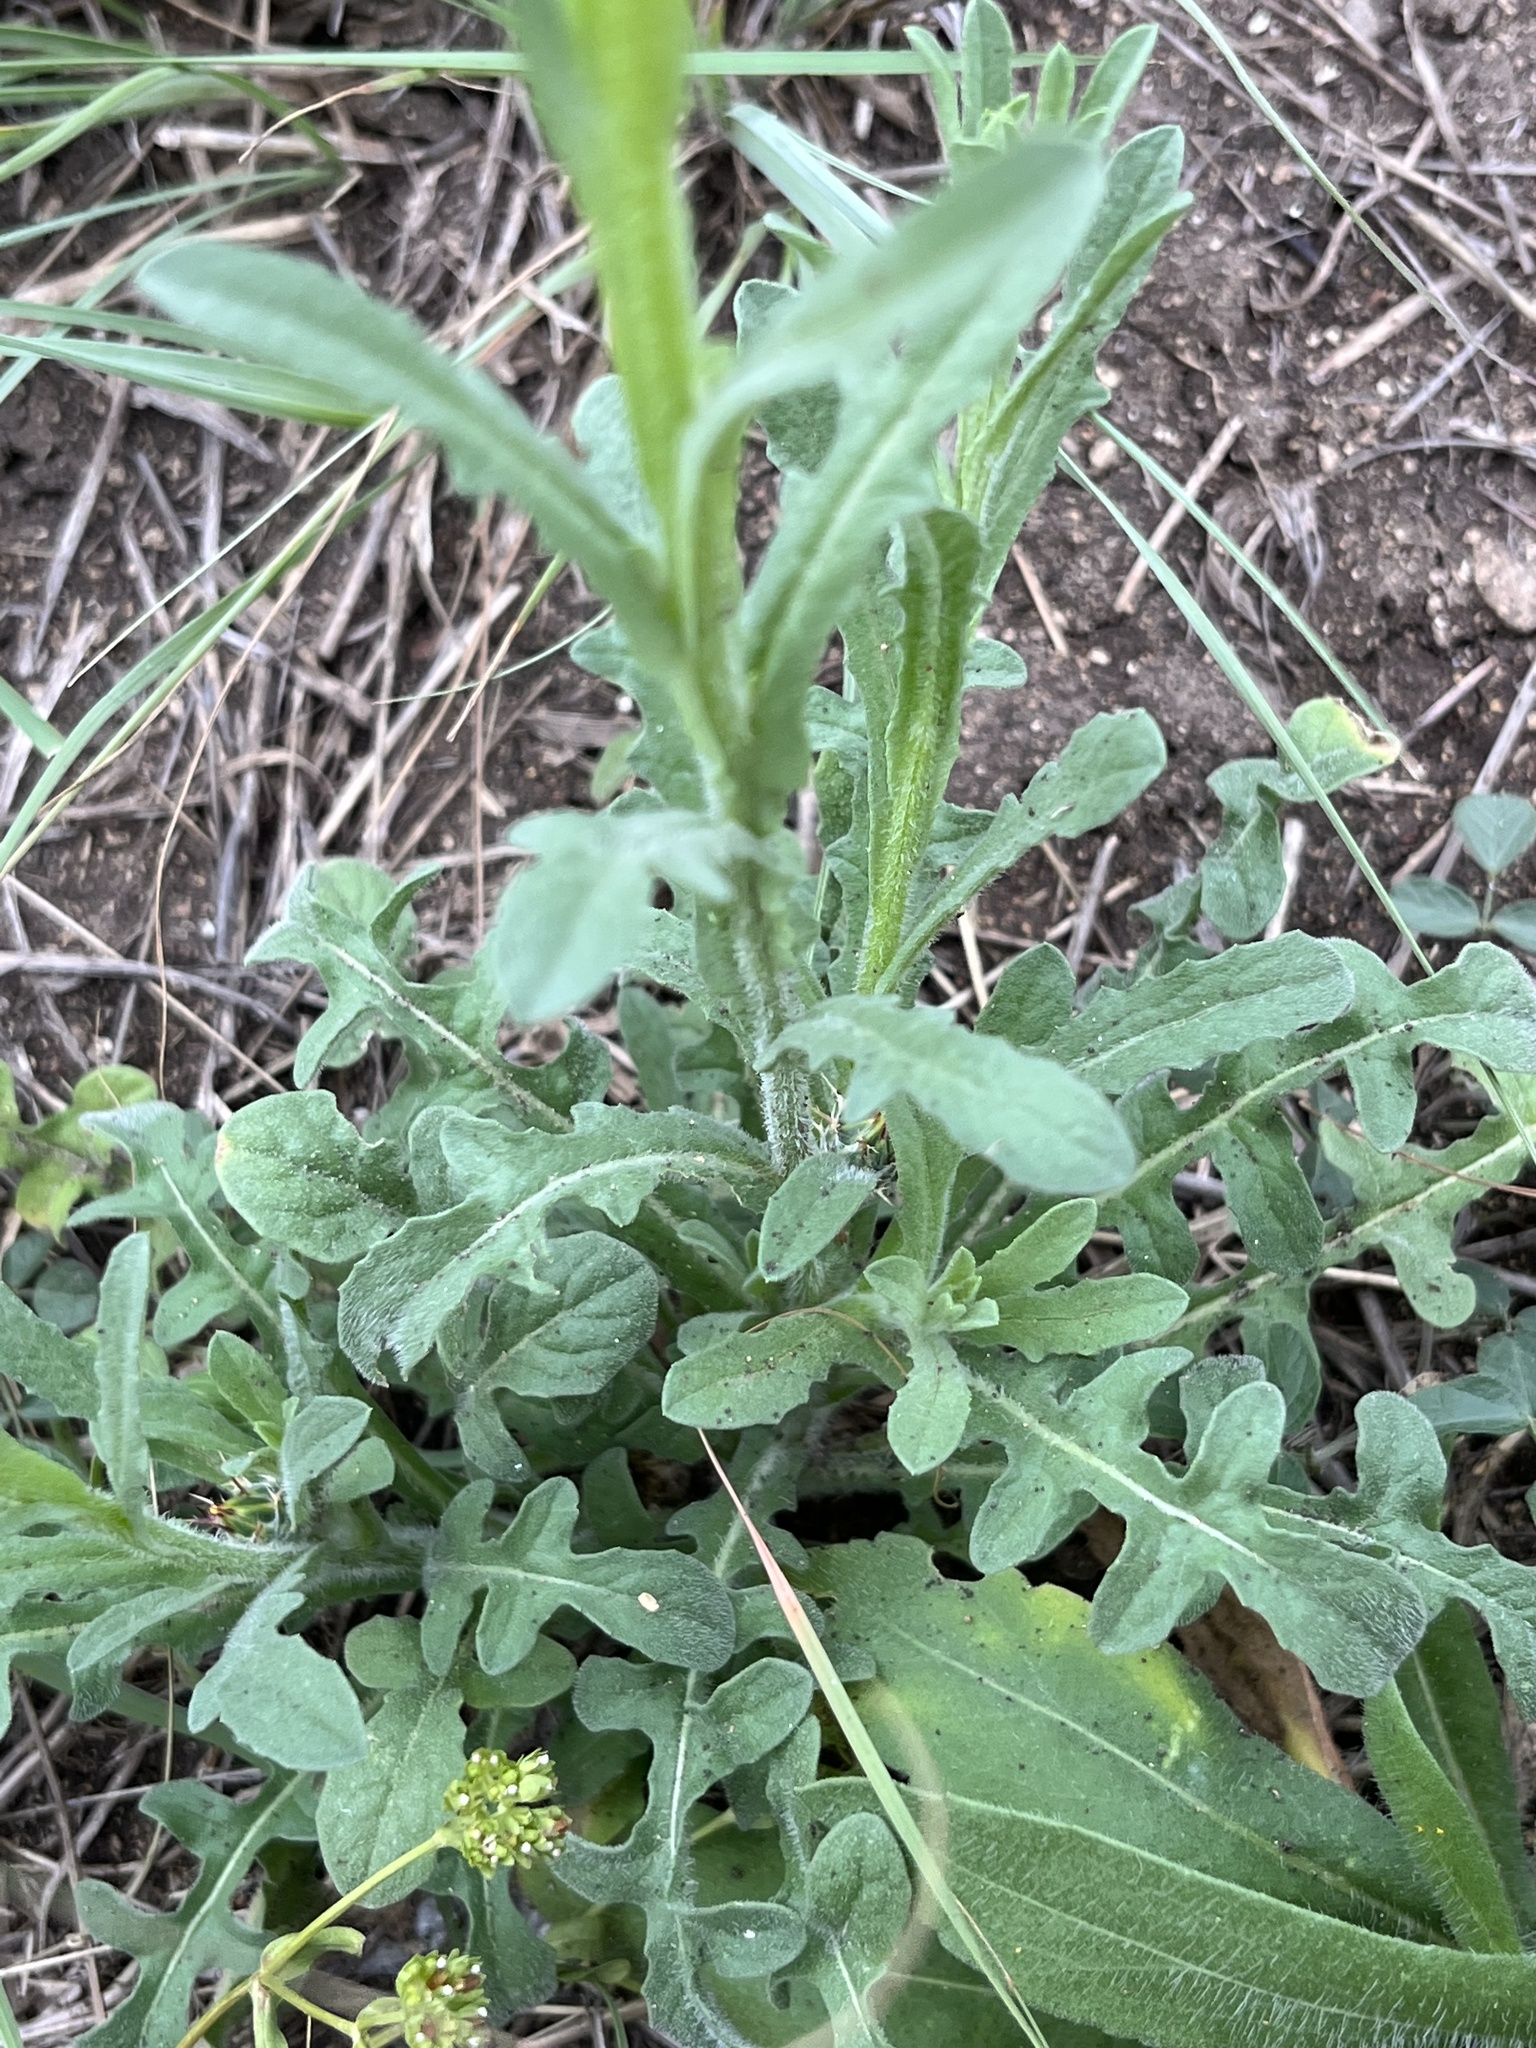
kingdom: Plantae
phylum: Tracheophyta
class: Magnoliopsida
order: Asterales
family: Asteraceae
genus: Centaurea
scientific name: Centaurea melitensis
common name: Maltese star-thistle
